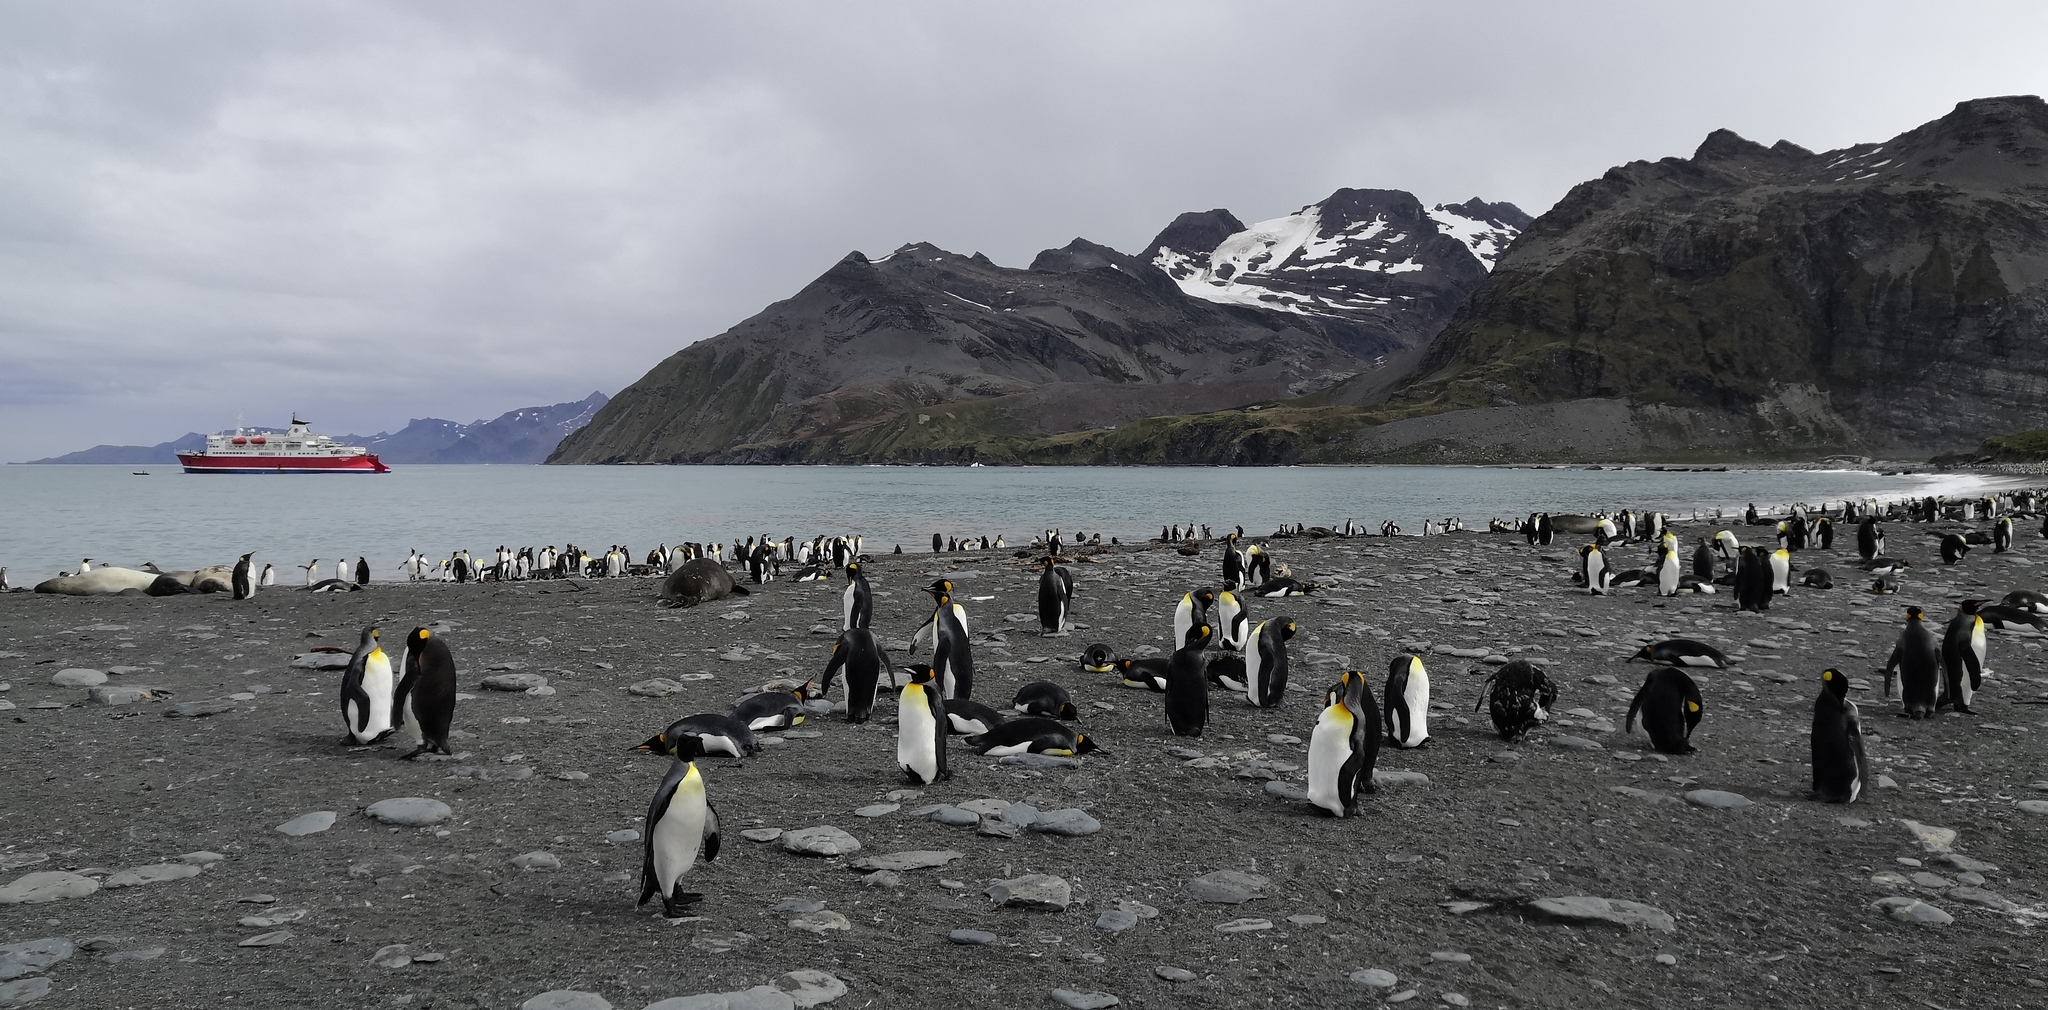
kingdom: Animalia
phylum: Chordata
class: Aves
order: Sphenisciformes
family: Spheniscidae
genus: Aptenodytes
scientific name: Aptenodytes patagonicus
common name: King penguin
